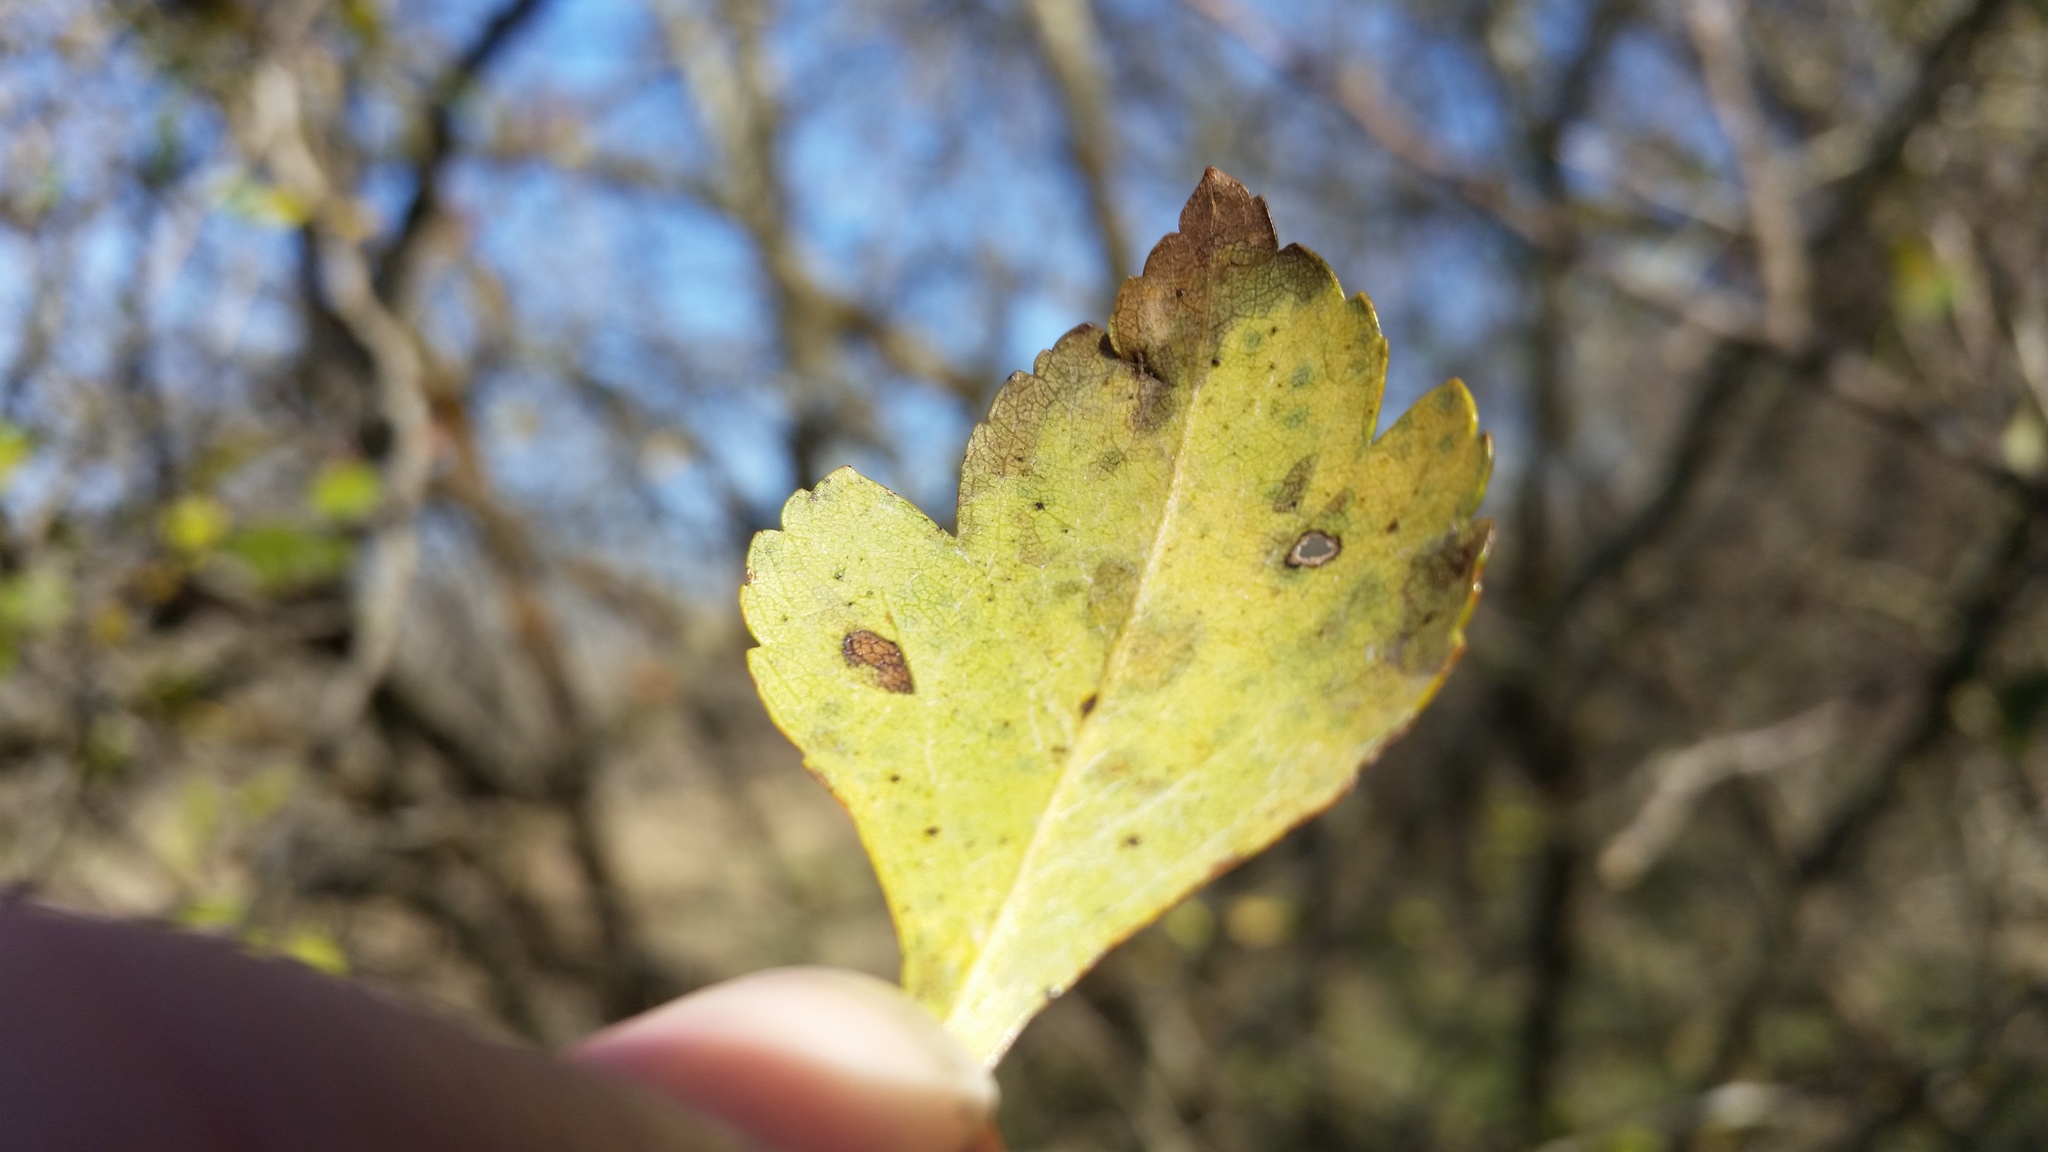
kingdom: Plantae
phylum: Tracheophyta
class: Magnoliopsida
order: Rosales
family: Rosaceae
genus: Crataegus
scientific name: Crataegus spathulata
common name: Littlehip hawthorn
